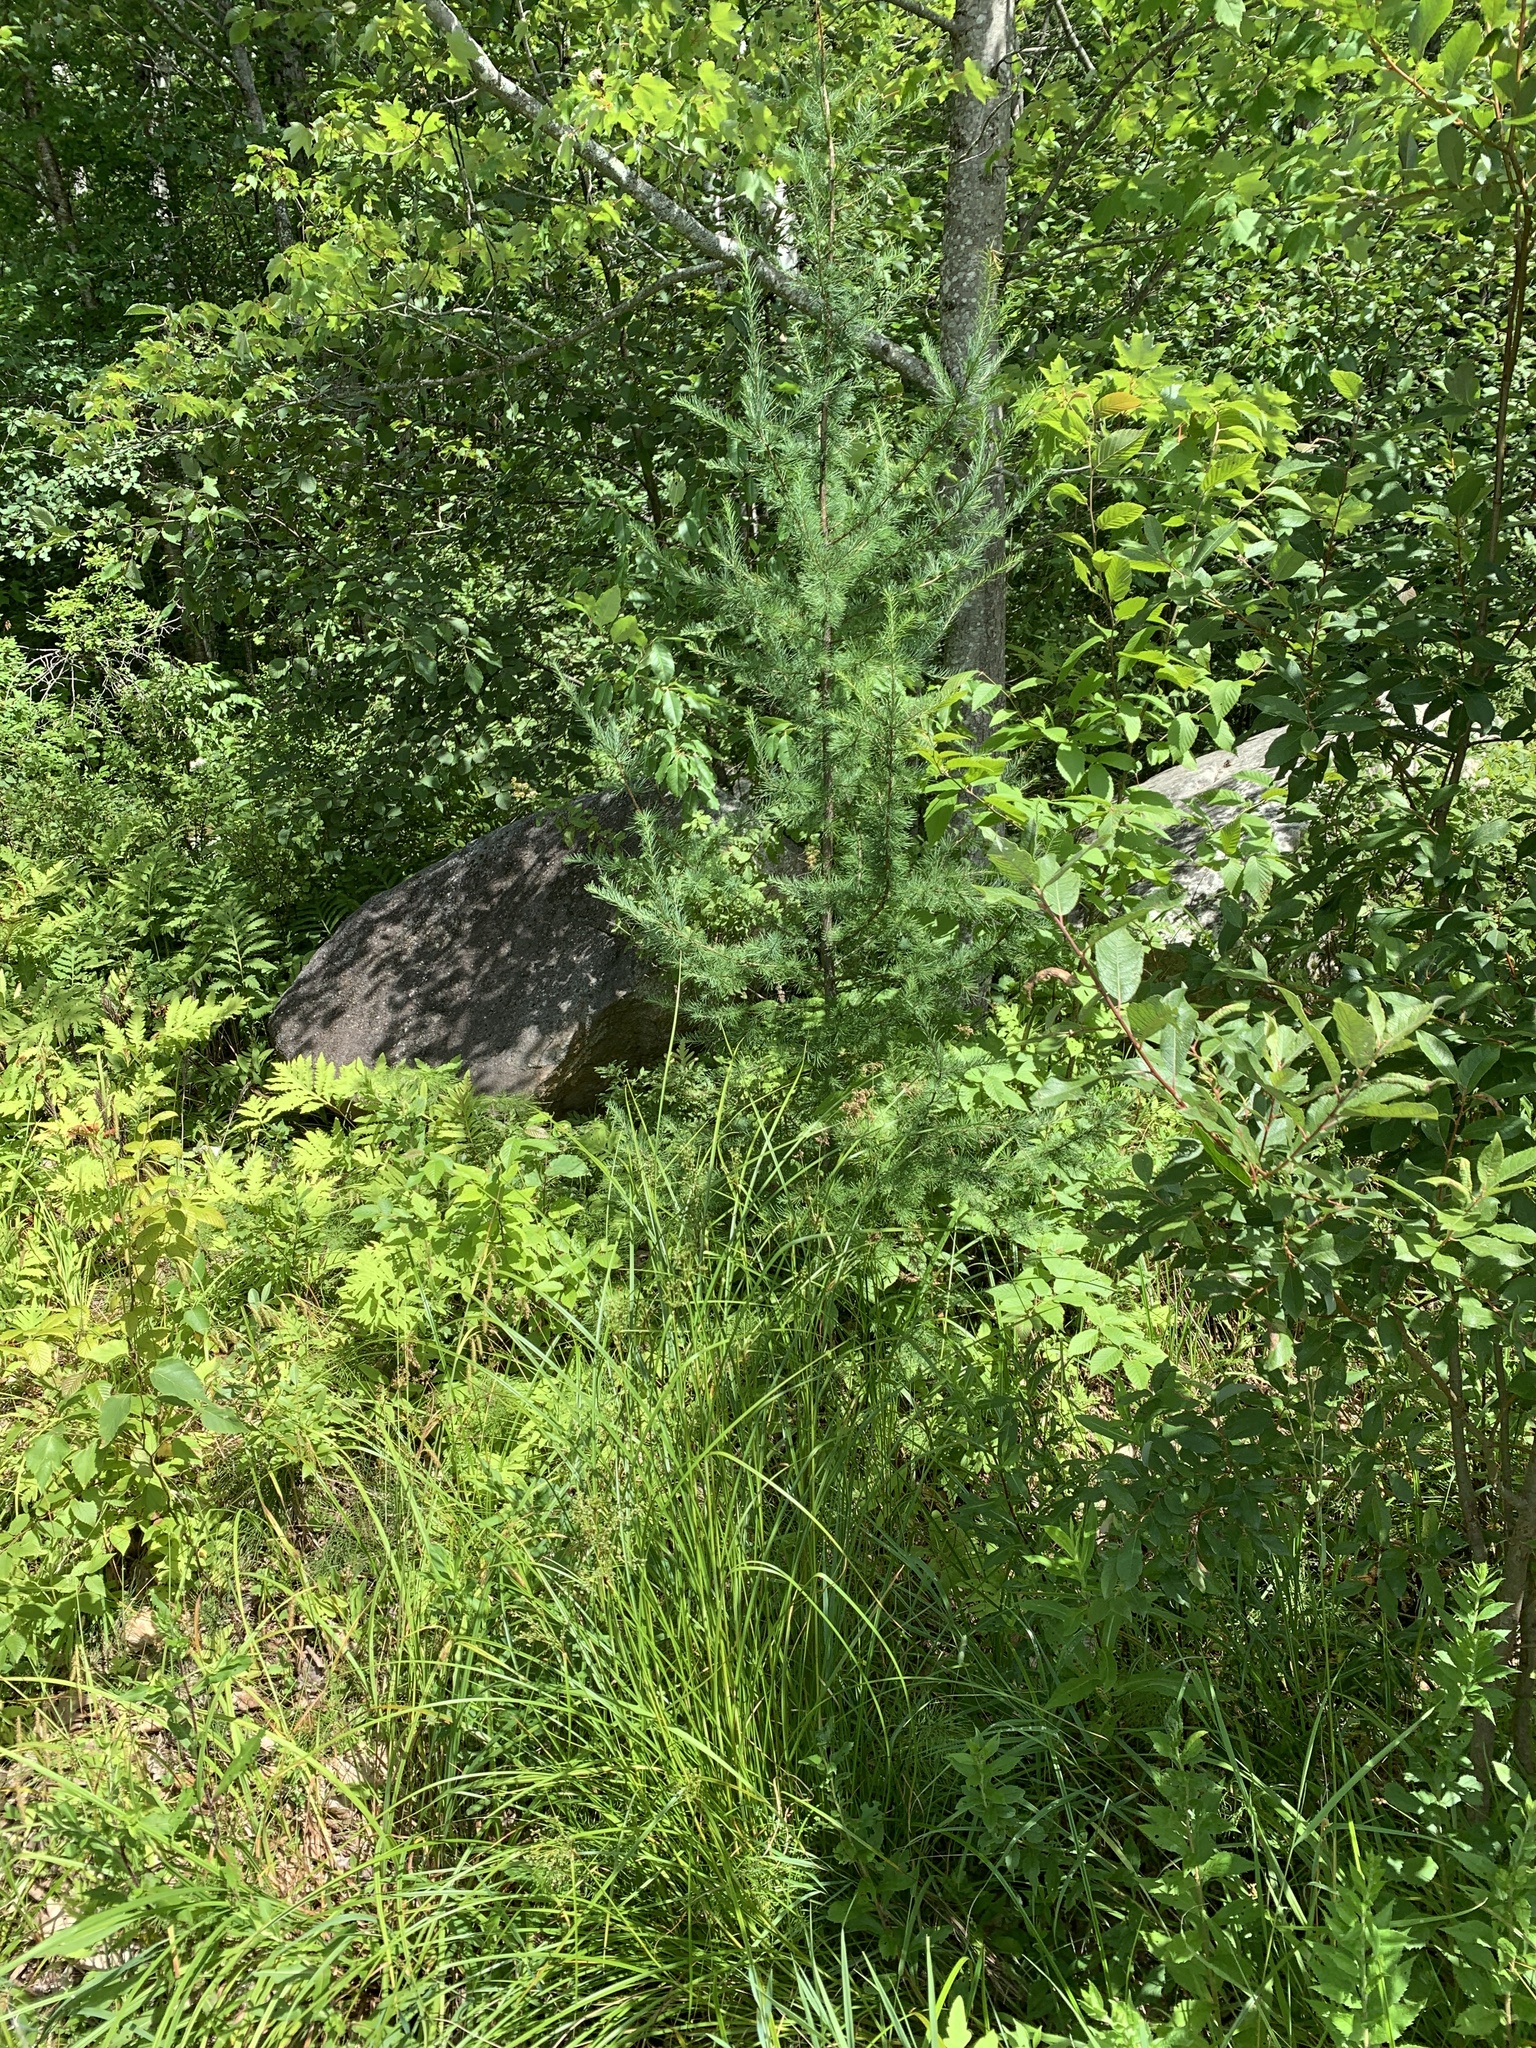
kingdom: Plantae
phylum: Tracheophyta
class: Pinopsida
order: Pinales
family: Pinaceae
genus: Larix
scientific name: Larix laricina
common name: American larch
